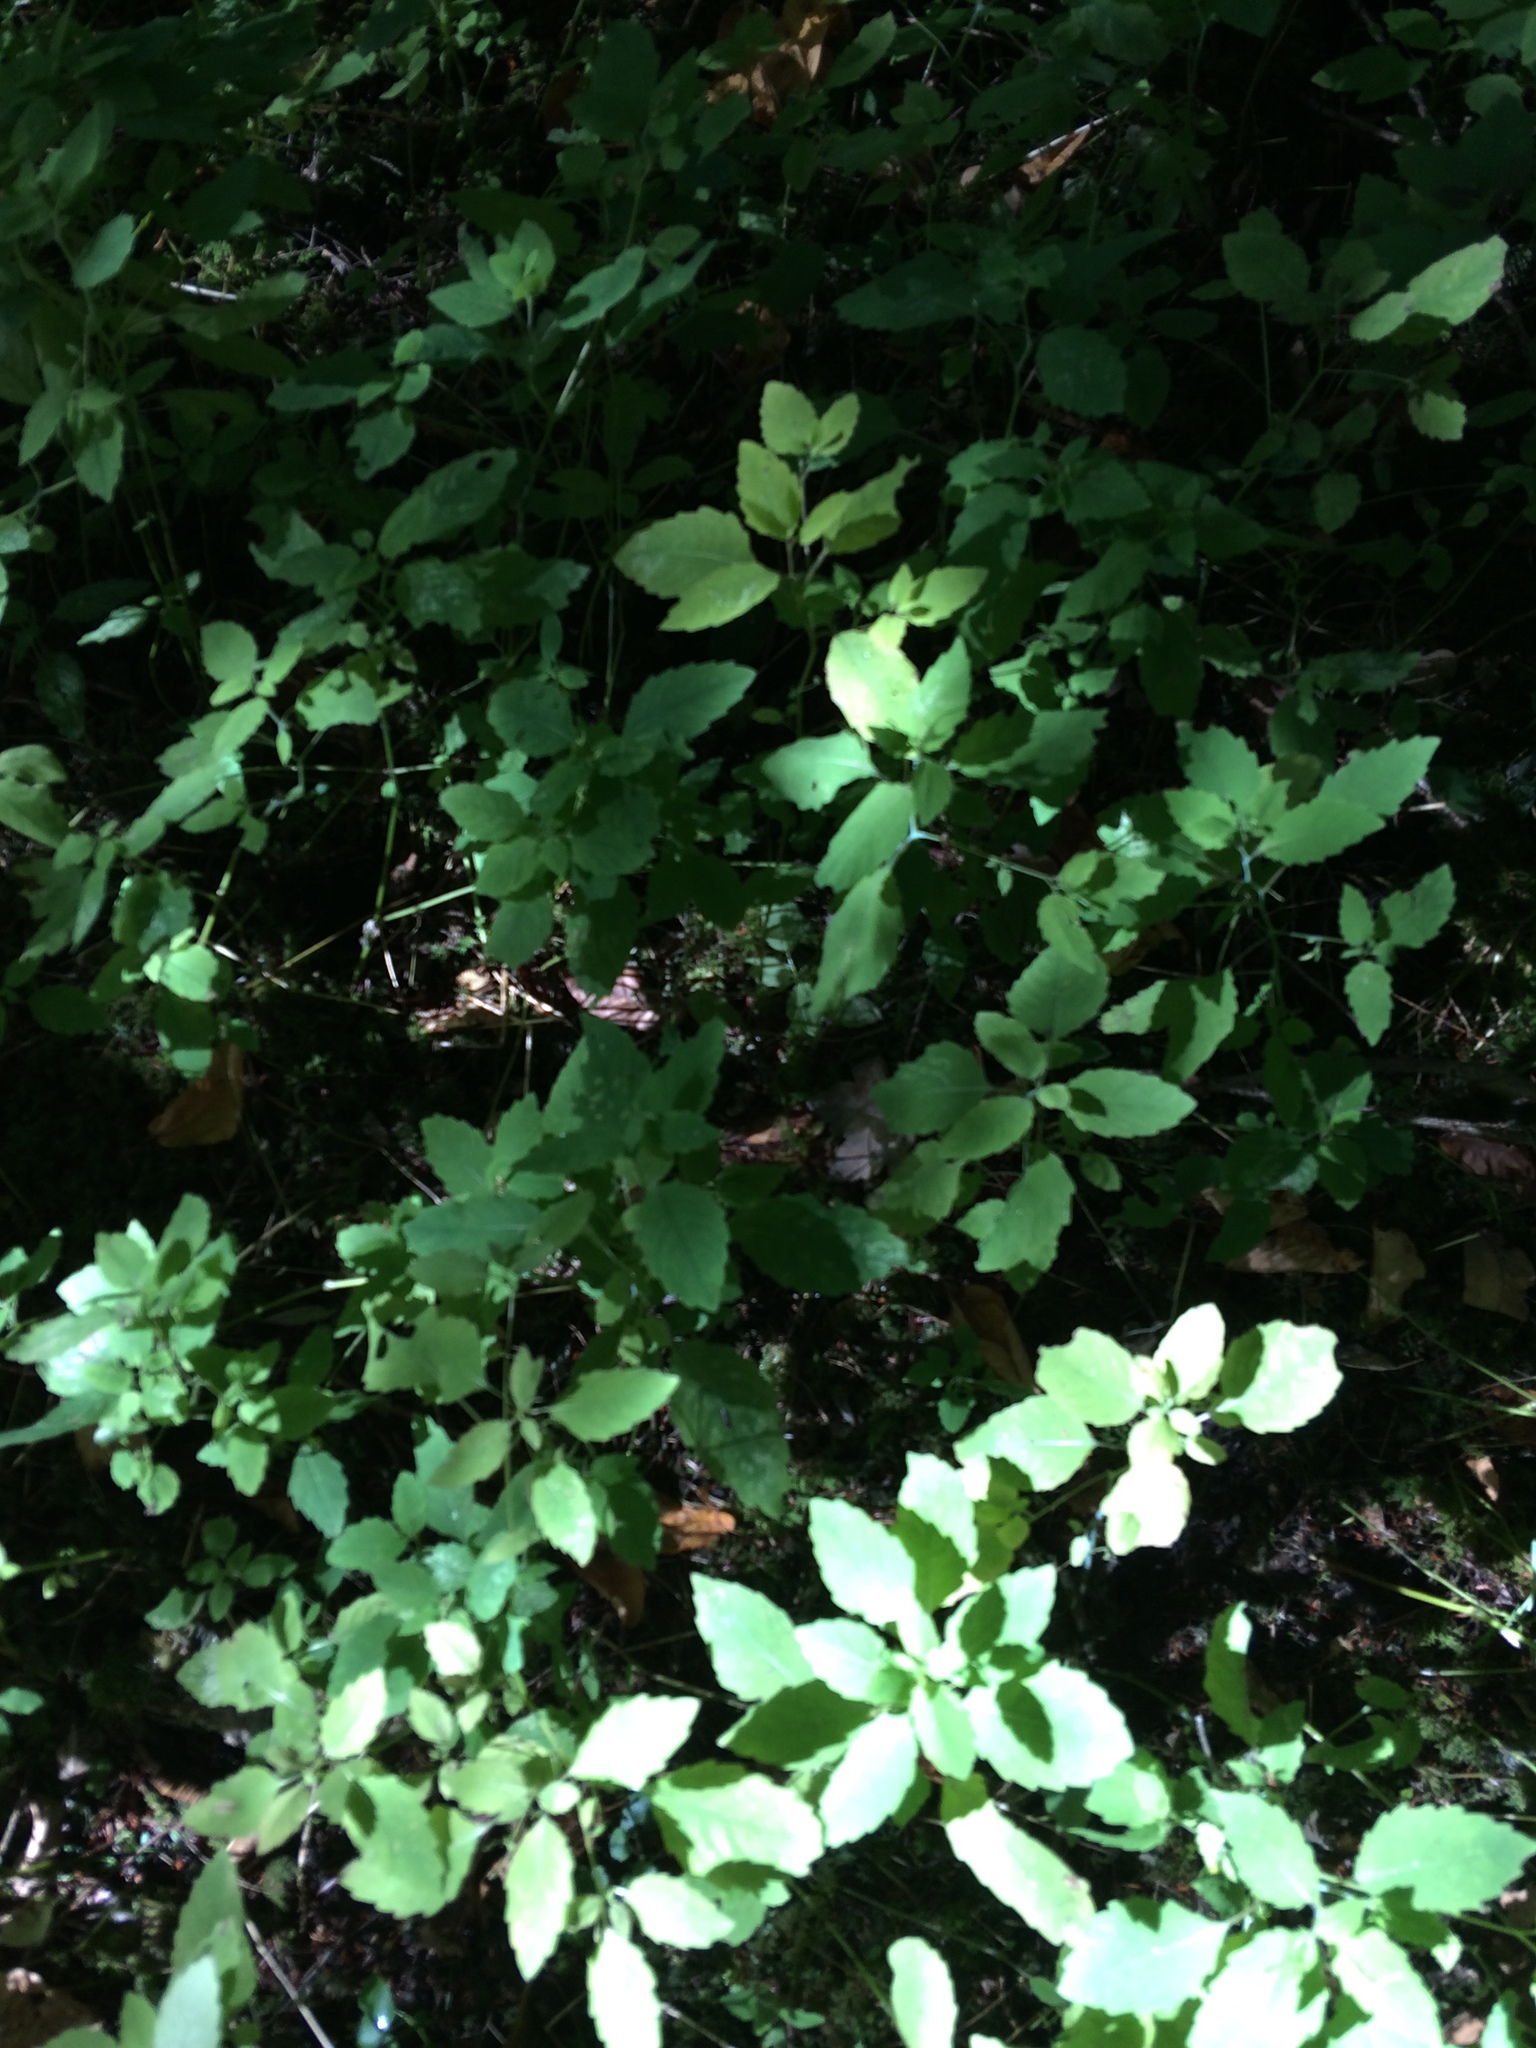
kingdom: Plantae
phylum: Tracheophyta
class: Magnoliopsida
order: Ericales
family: Balsaminaceae
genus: Impatiens
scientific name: Impatiens capensis
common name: Orange balsam
